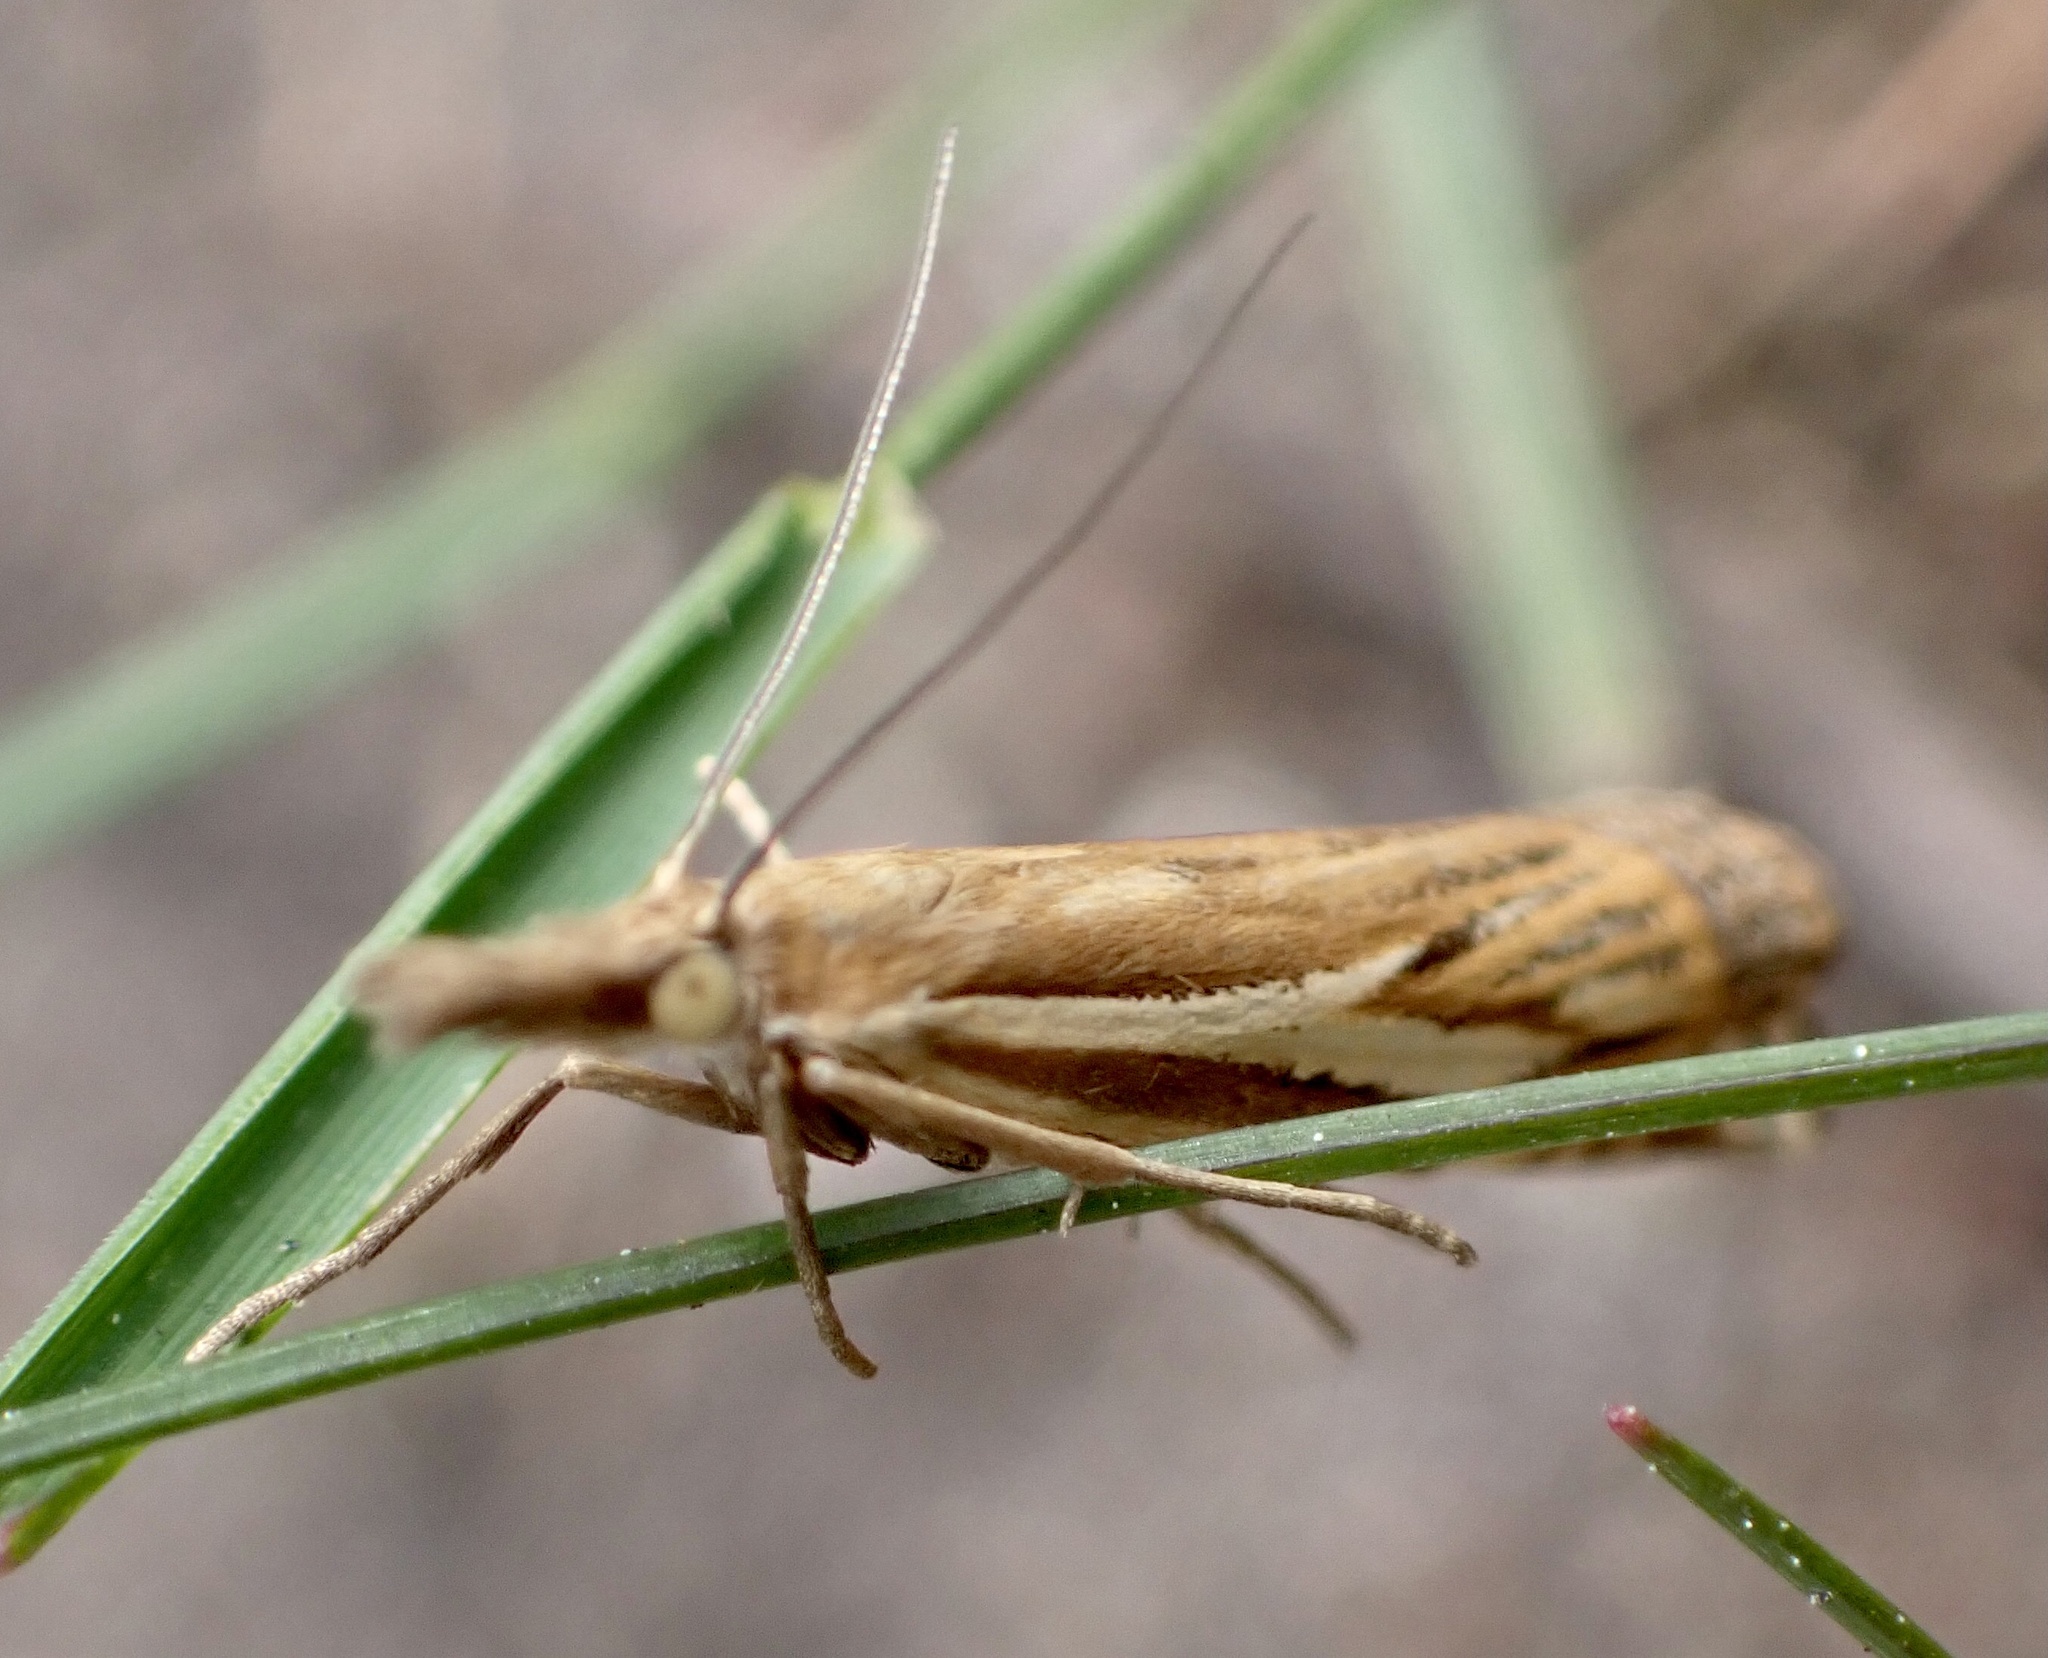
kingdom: Animalia
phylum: Arthropoda
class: Insecta
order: Lepidoptera
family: Crambidae
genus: Crambus
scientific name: Crambus pratella
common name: Scarce grass-veneer
